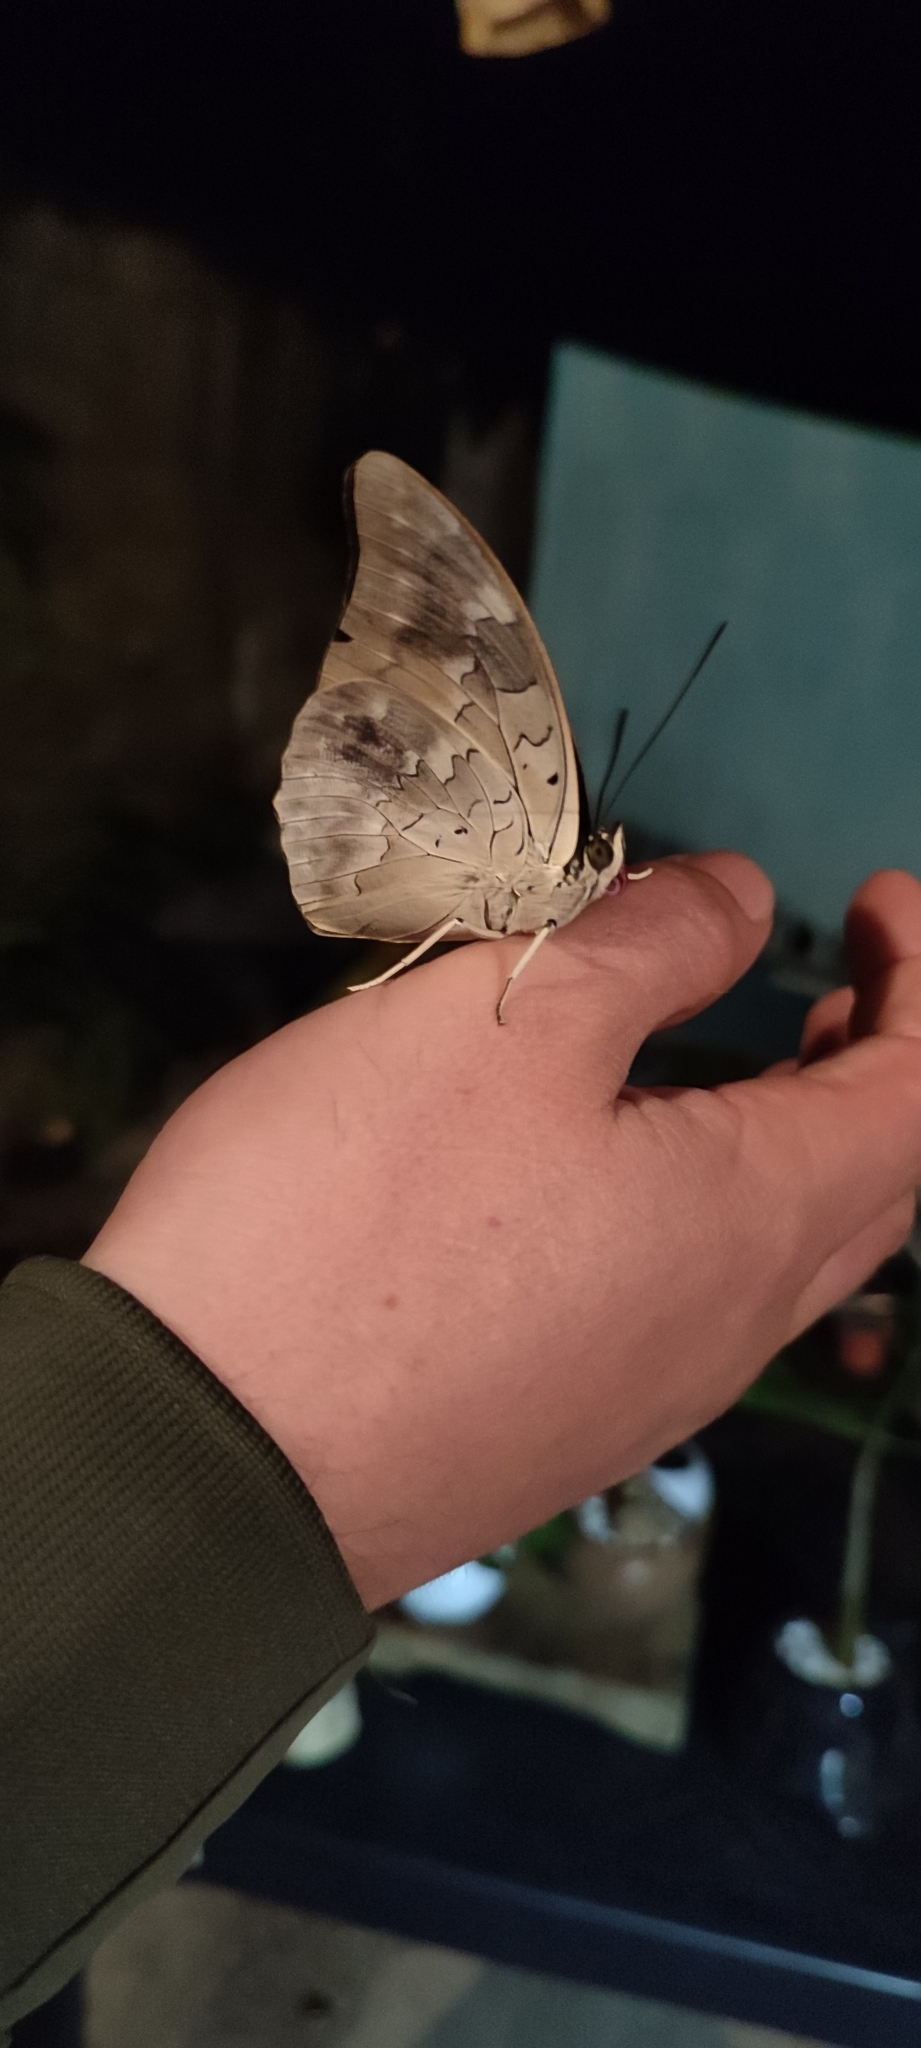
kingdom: Animalia
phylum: Arthropoda
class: Insecta
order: Lepidoptera
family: Nymphalidae
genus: Prepona
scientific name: Prepona Archaeoprepona demophoon
